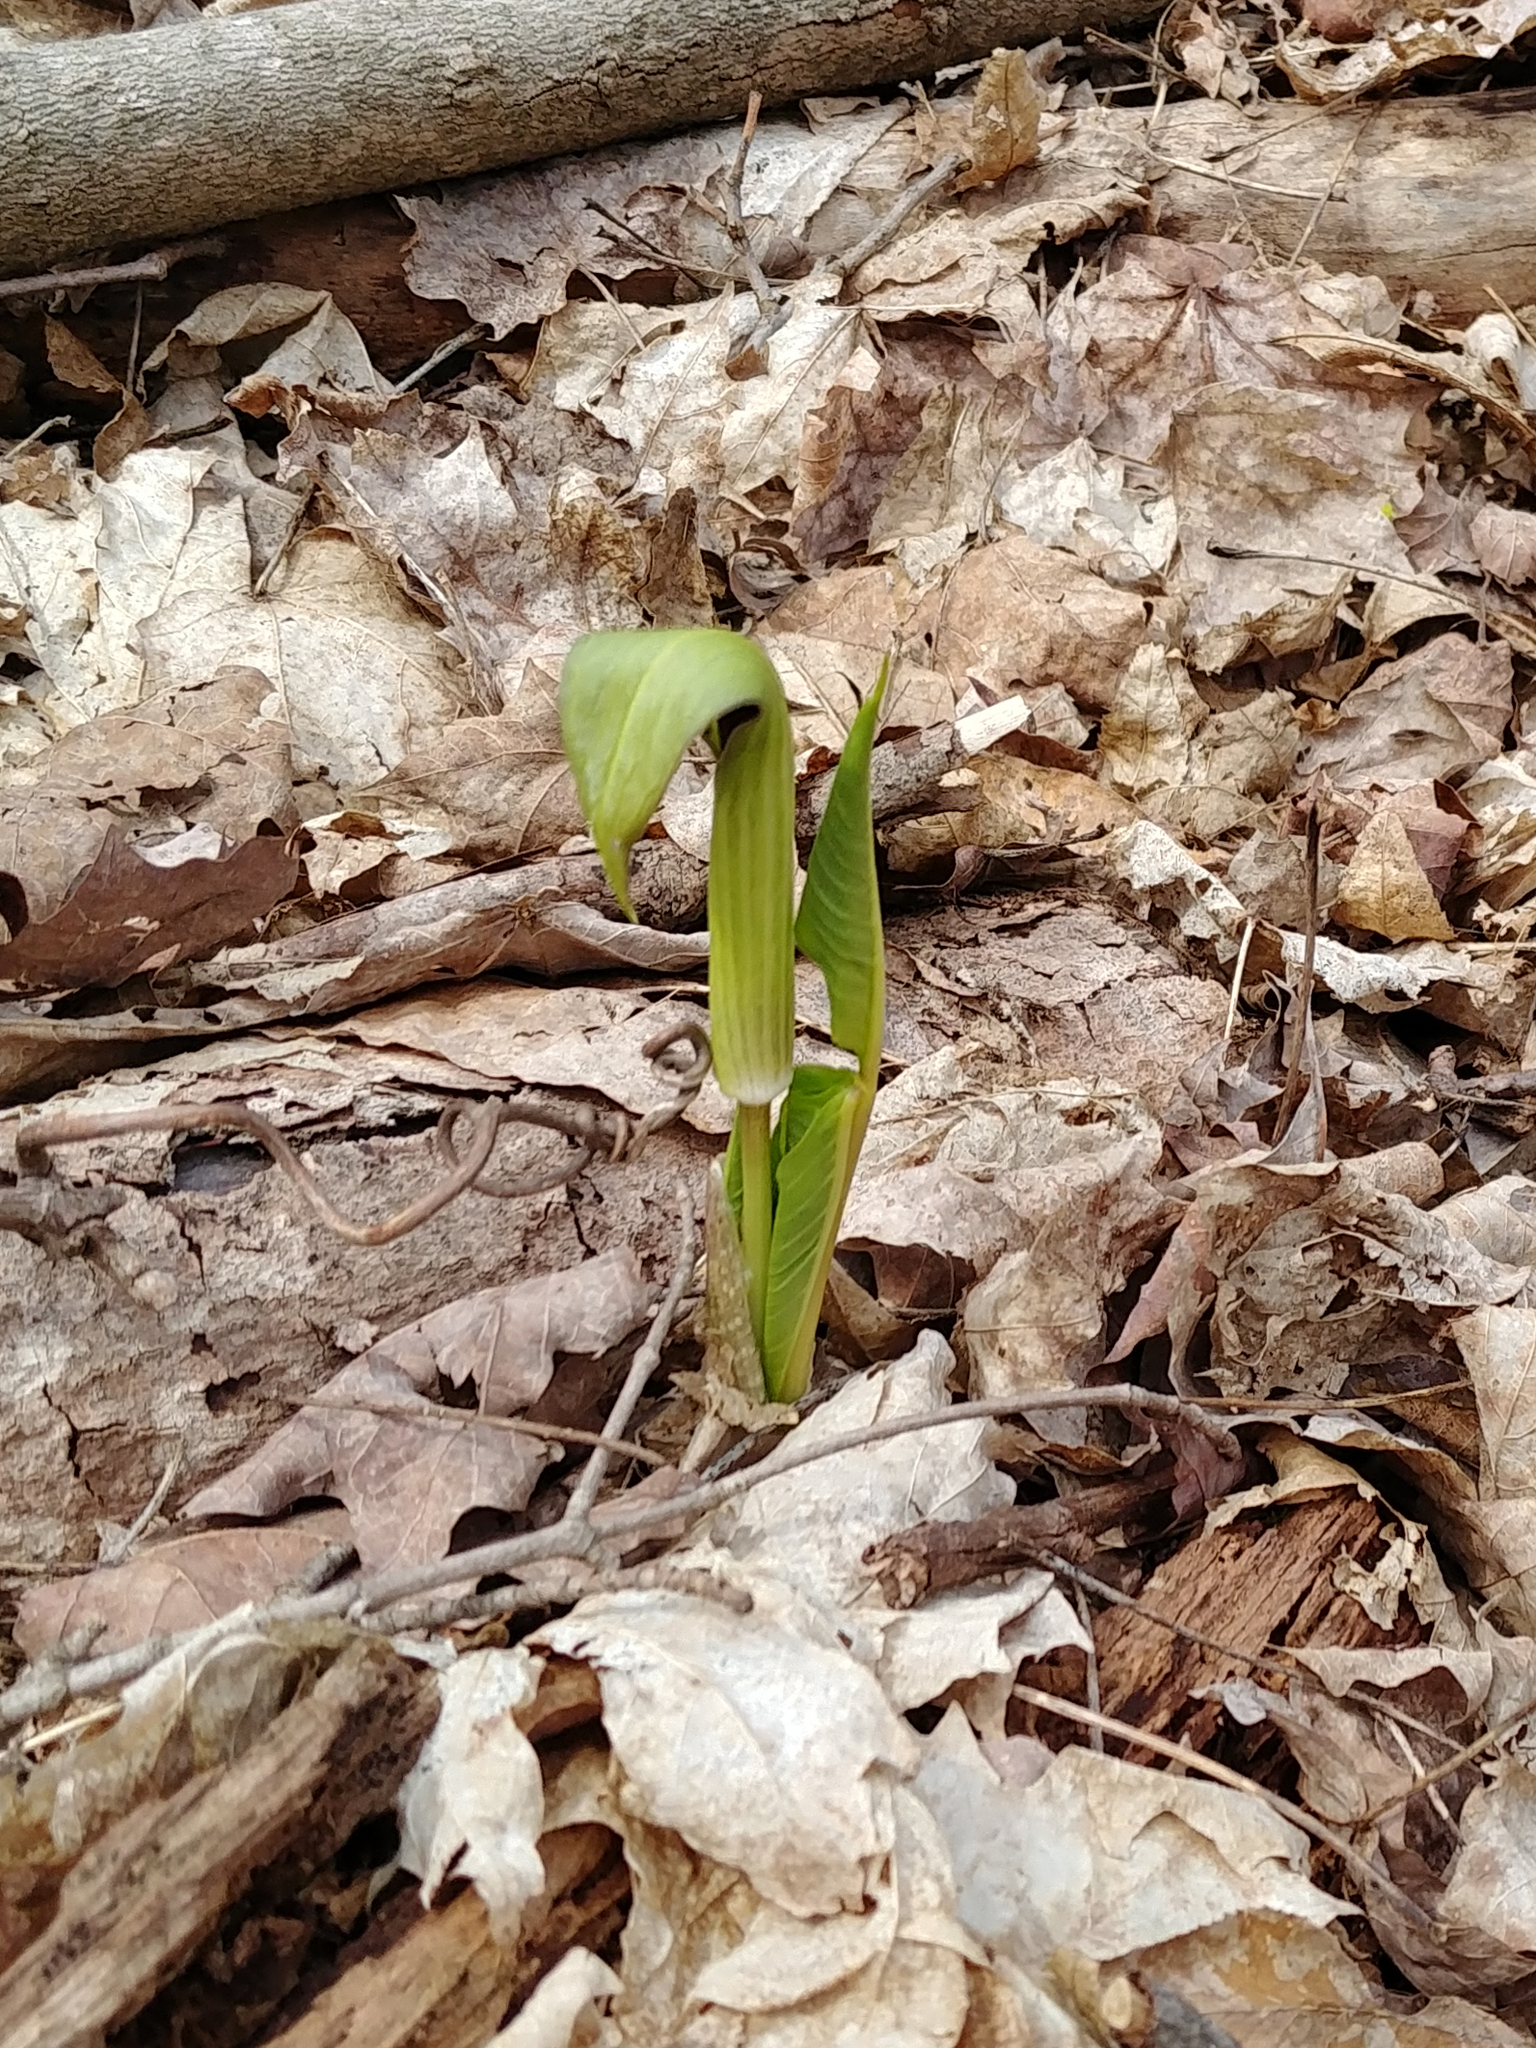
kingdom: Plantae
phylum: Tracheophyta
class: Liliopsida
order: Alismatales
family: Araceae
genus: Arisaema
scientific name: Arisaema triphyllum
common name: Jack-in-the-pulpit
